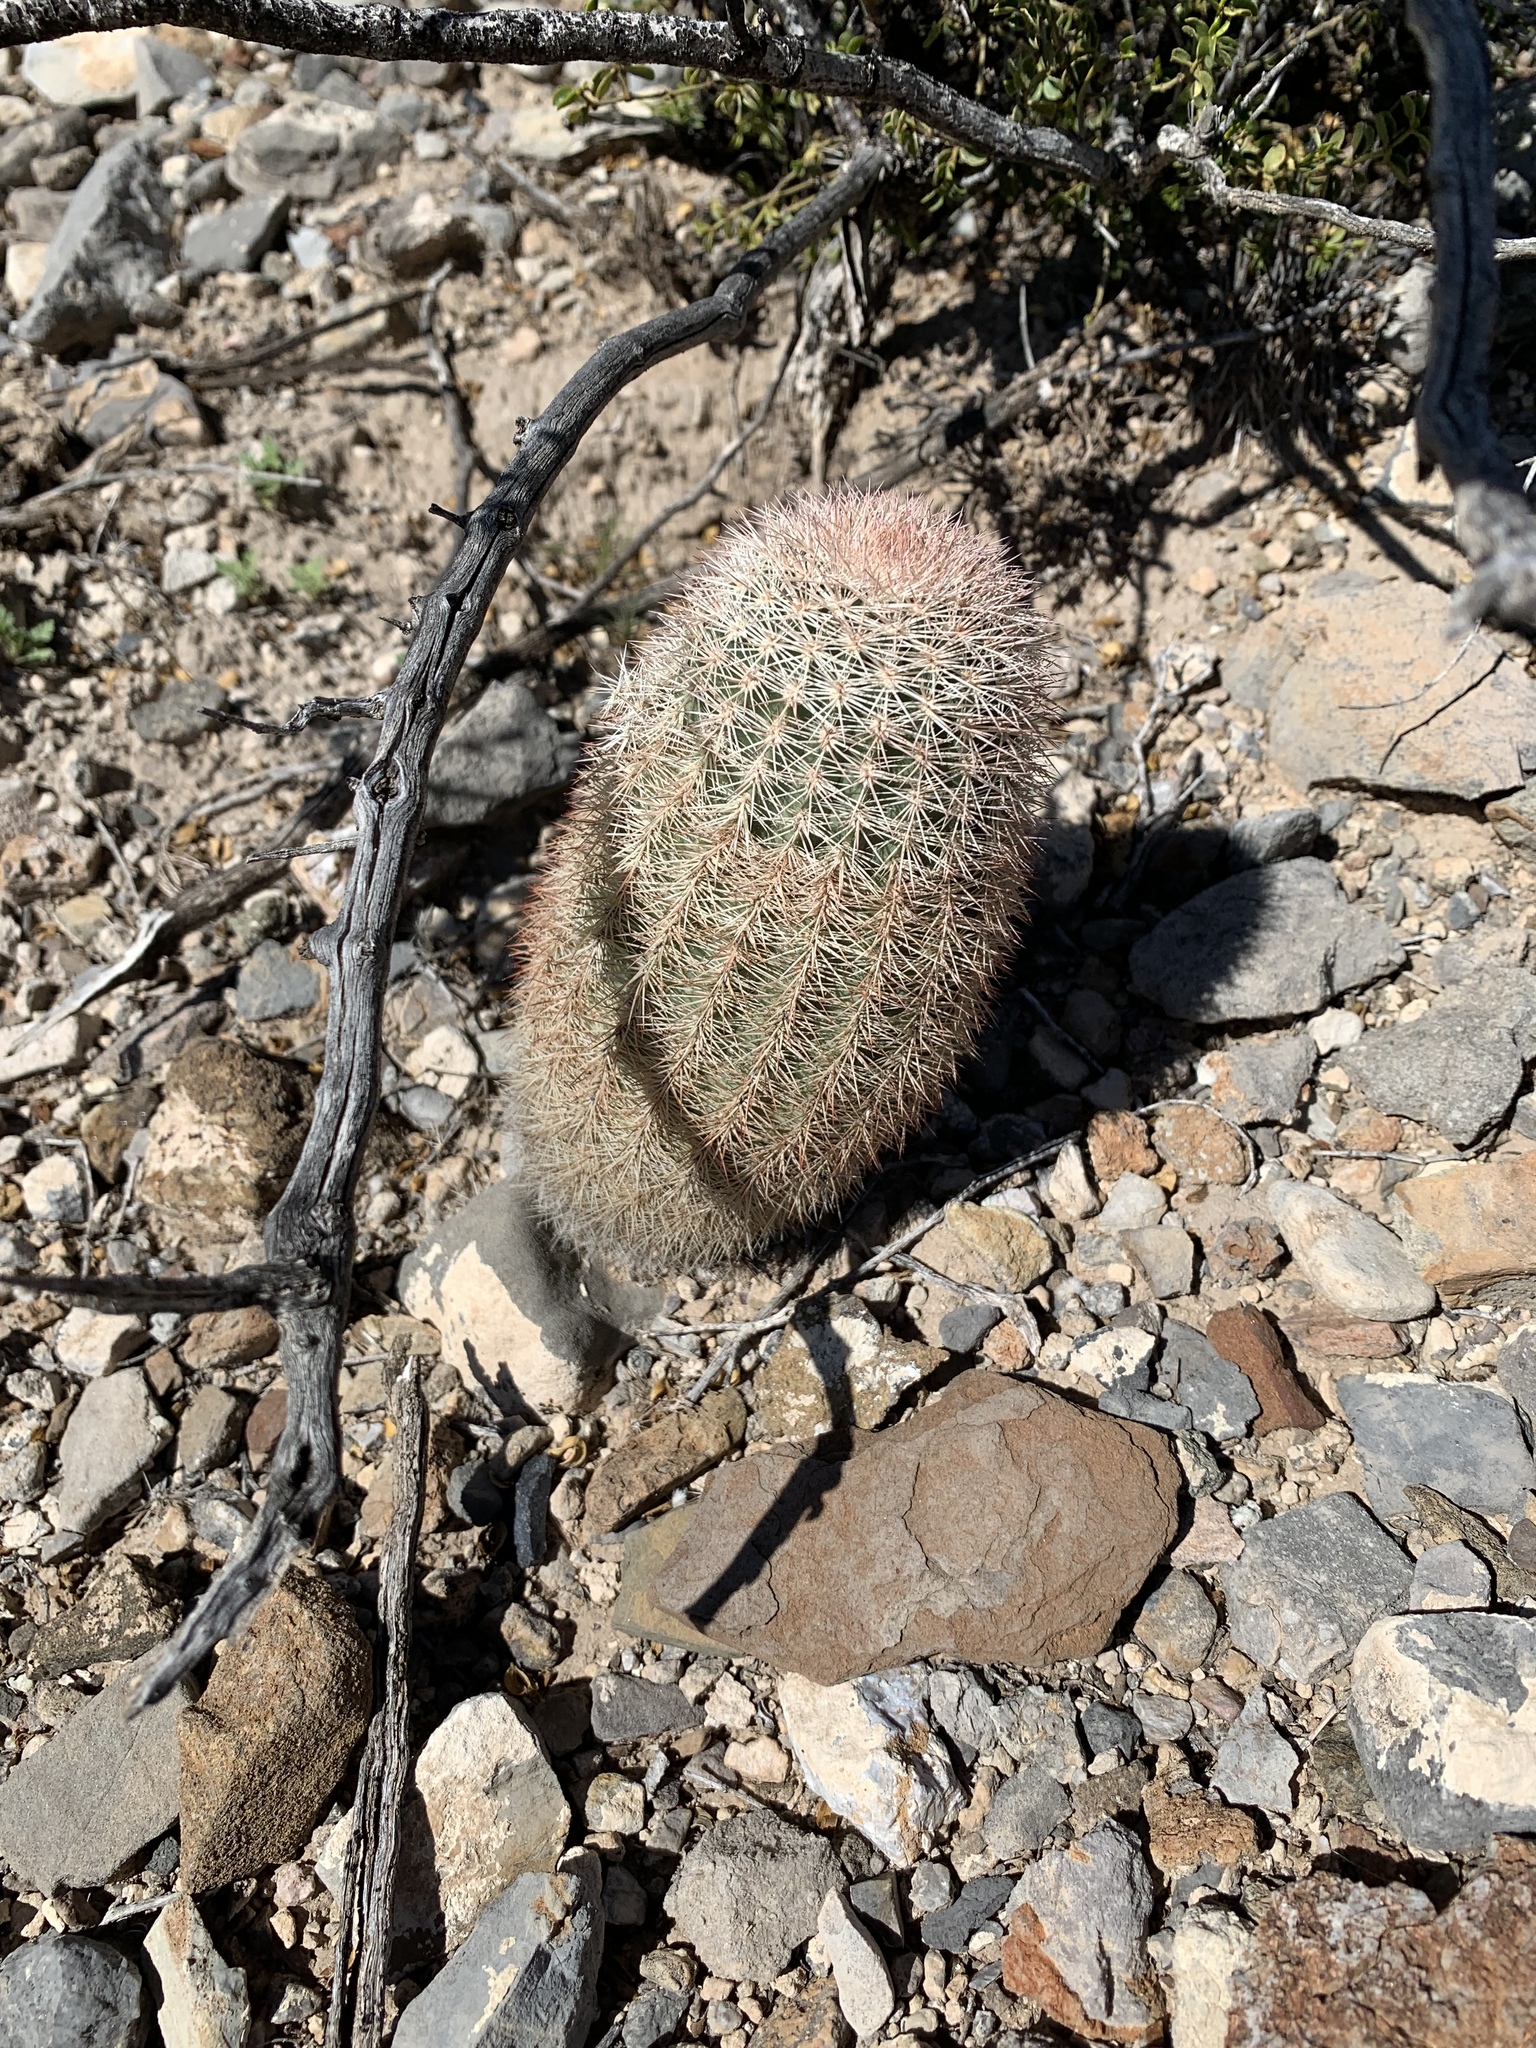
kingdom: Plantae
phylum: Tracheophyta
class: Magnoliopsida
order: Caryophyllales
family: Cactaceae
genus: Echinocereus
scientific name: Echinocereus dasyacanthus
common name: Spiny hedgehog cactus
